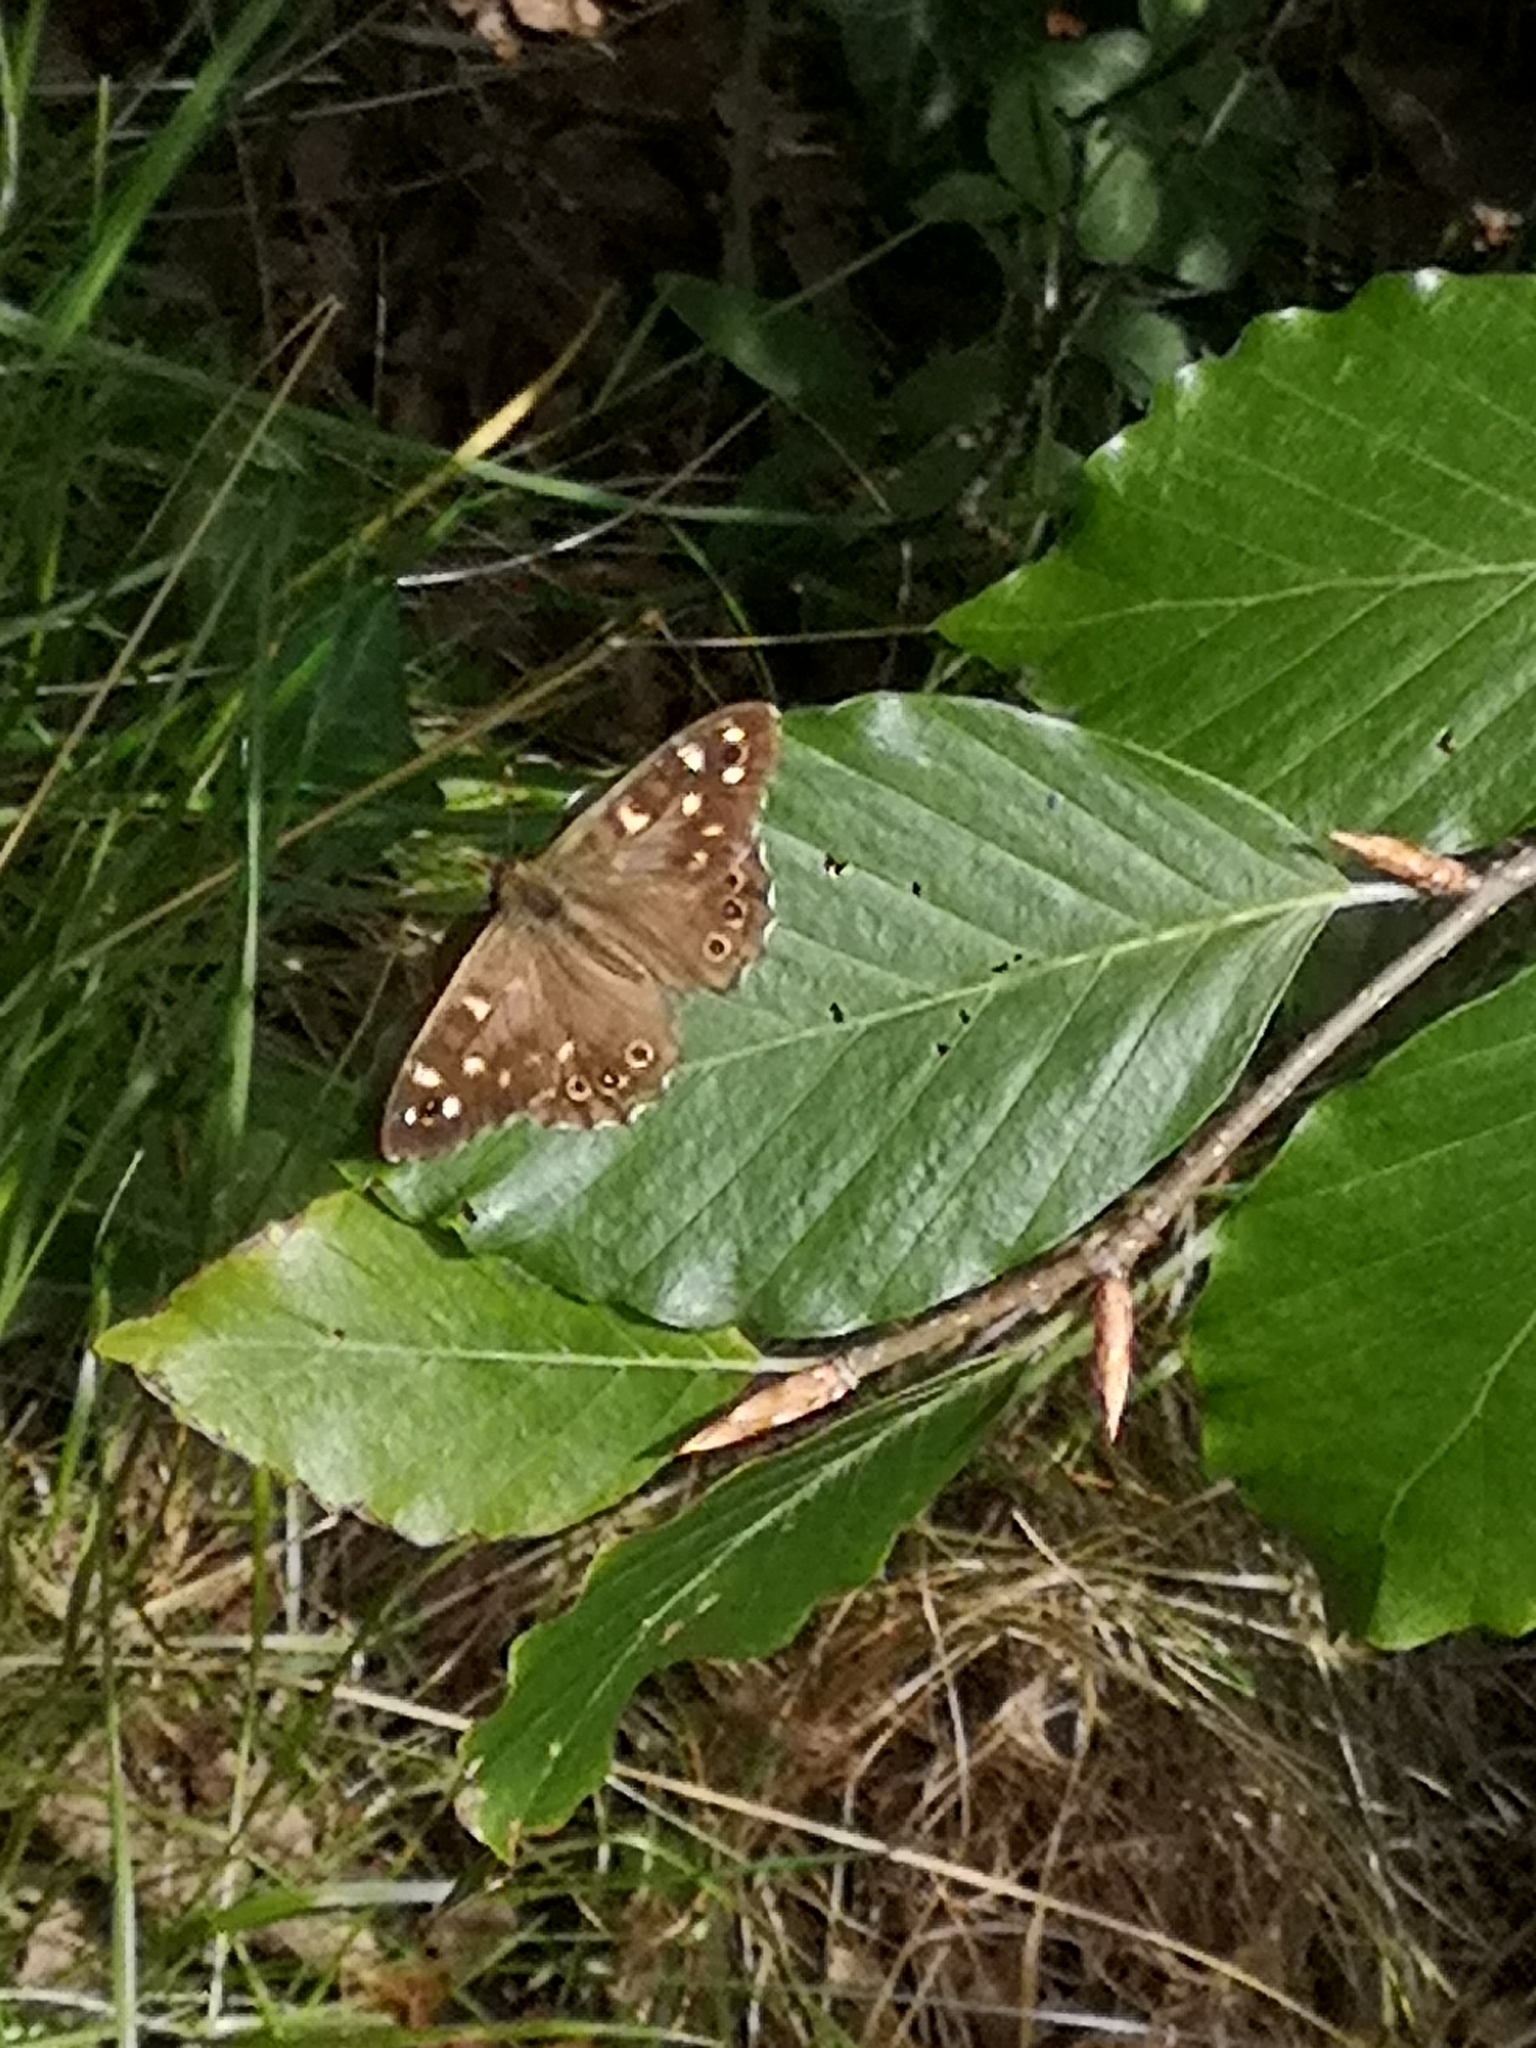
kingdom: Animalia
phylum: Arthropoda
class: Insecta
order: Lepidoptera
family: Nymphalidae
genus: Pararge
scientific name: Pararge aegeria
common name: Speckled wood
